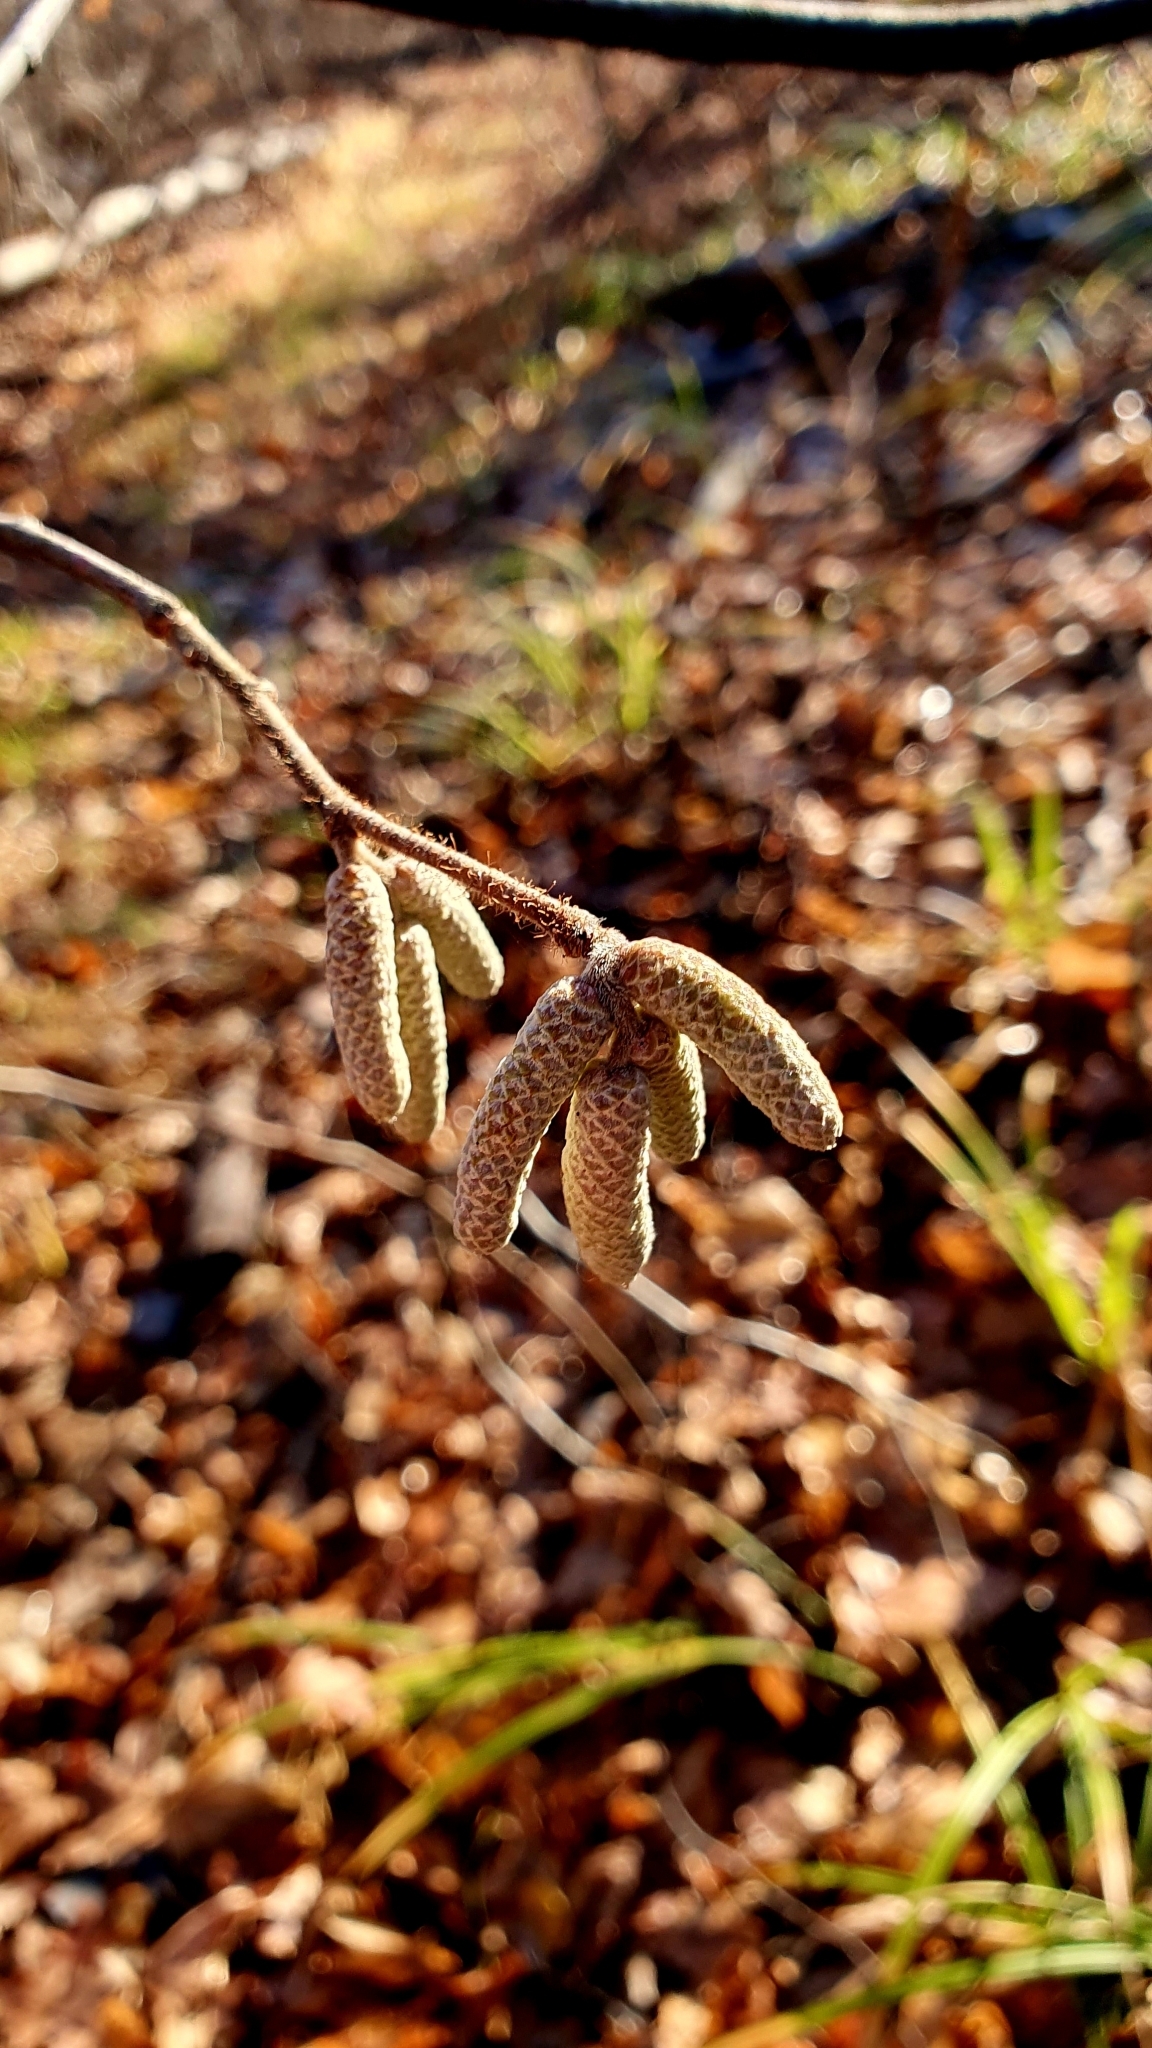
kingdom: Plantae
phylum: Tracheophyta
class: Magnoliopsida
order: Fagales
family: Betulaceae
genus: Corylus
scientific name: Corylus avellana
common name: European hazel
